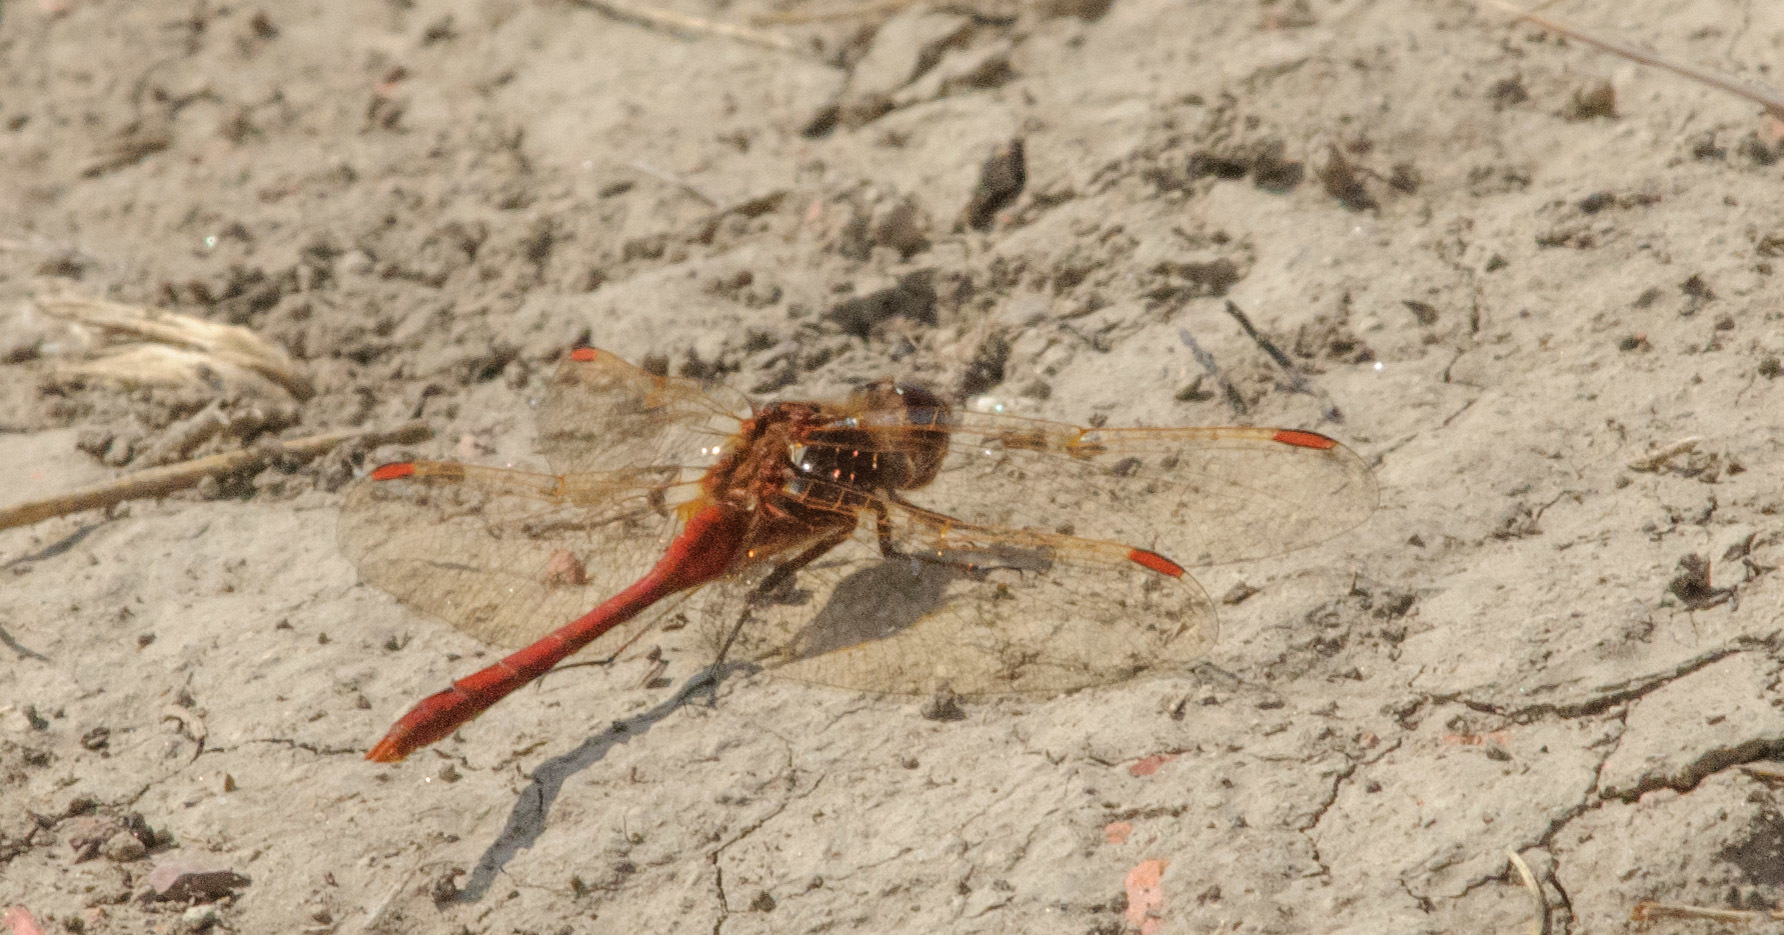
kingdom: Animalia
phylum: Arthropoda
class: Insecta
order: Odonata
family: Libellulidae
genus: Sympetrum
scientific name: Sympetrum costiferum
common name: Saffron-winged meadowhawk
